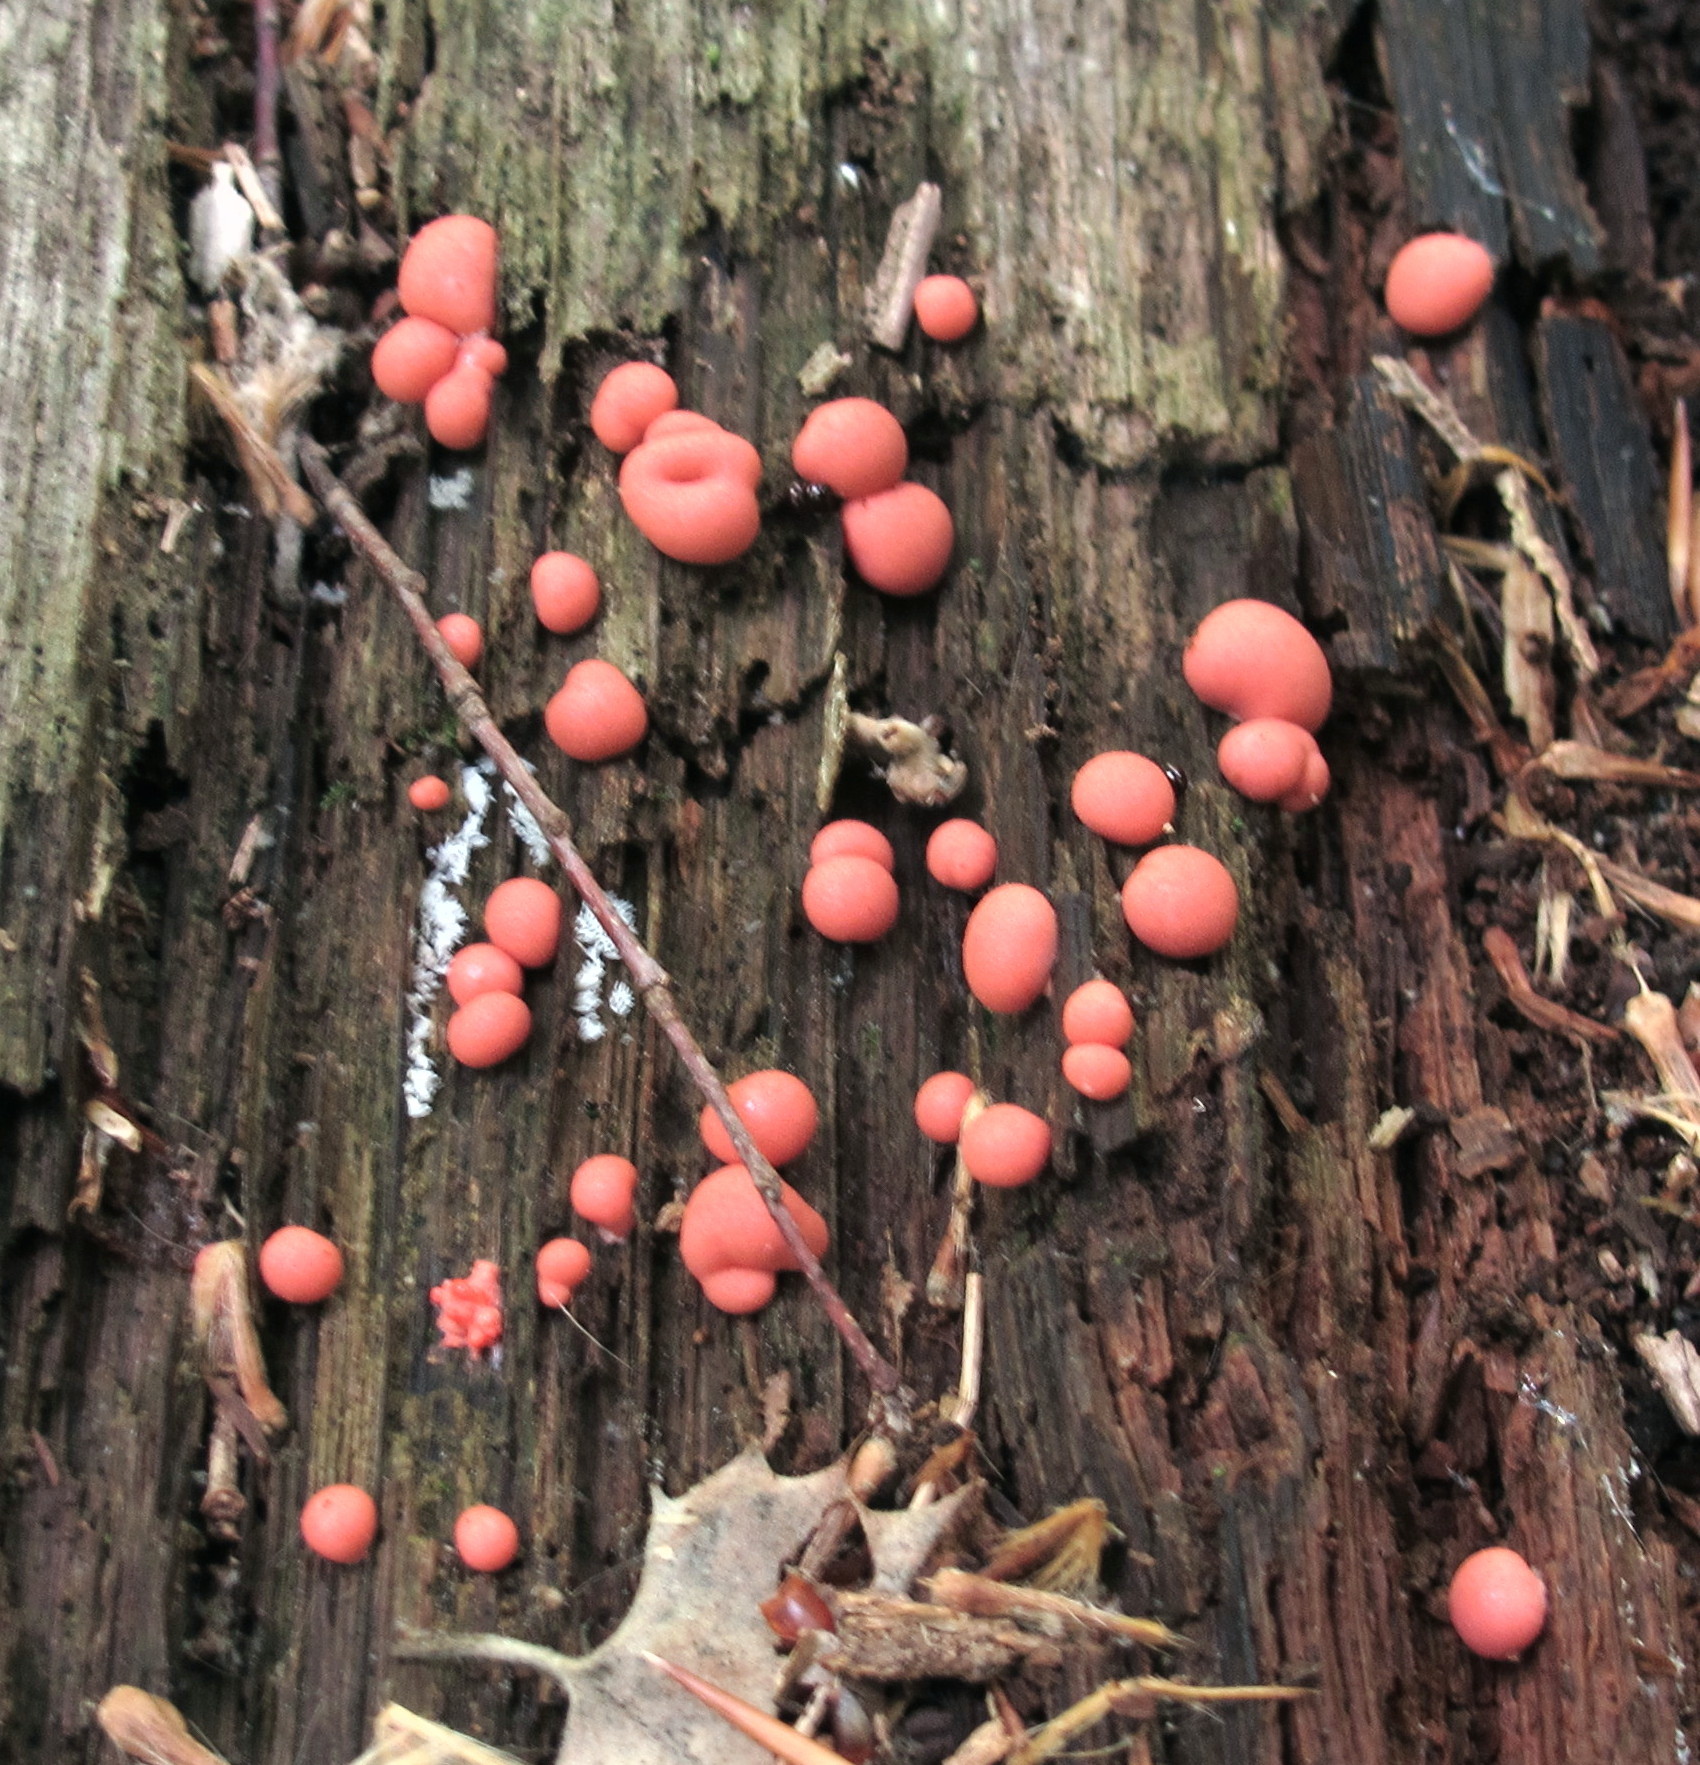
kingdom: Protozoa
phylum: Mycetozoa
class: Myxomycetes
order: Cribrariales
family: Tubiferaceae
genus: Lycogala
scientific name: Lycogala epidendrum
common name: Wolf's milk
